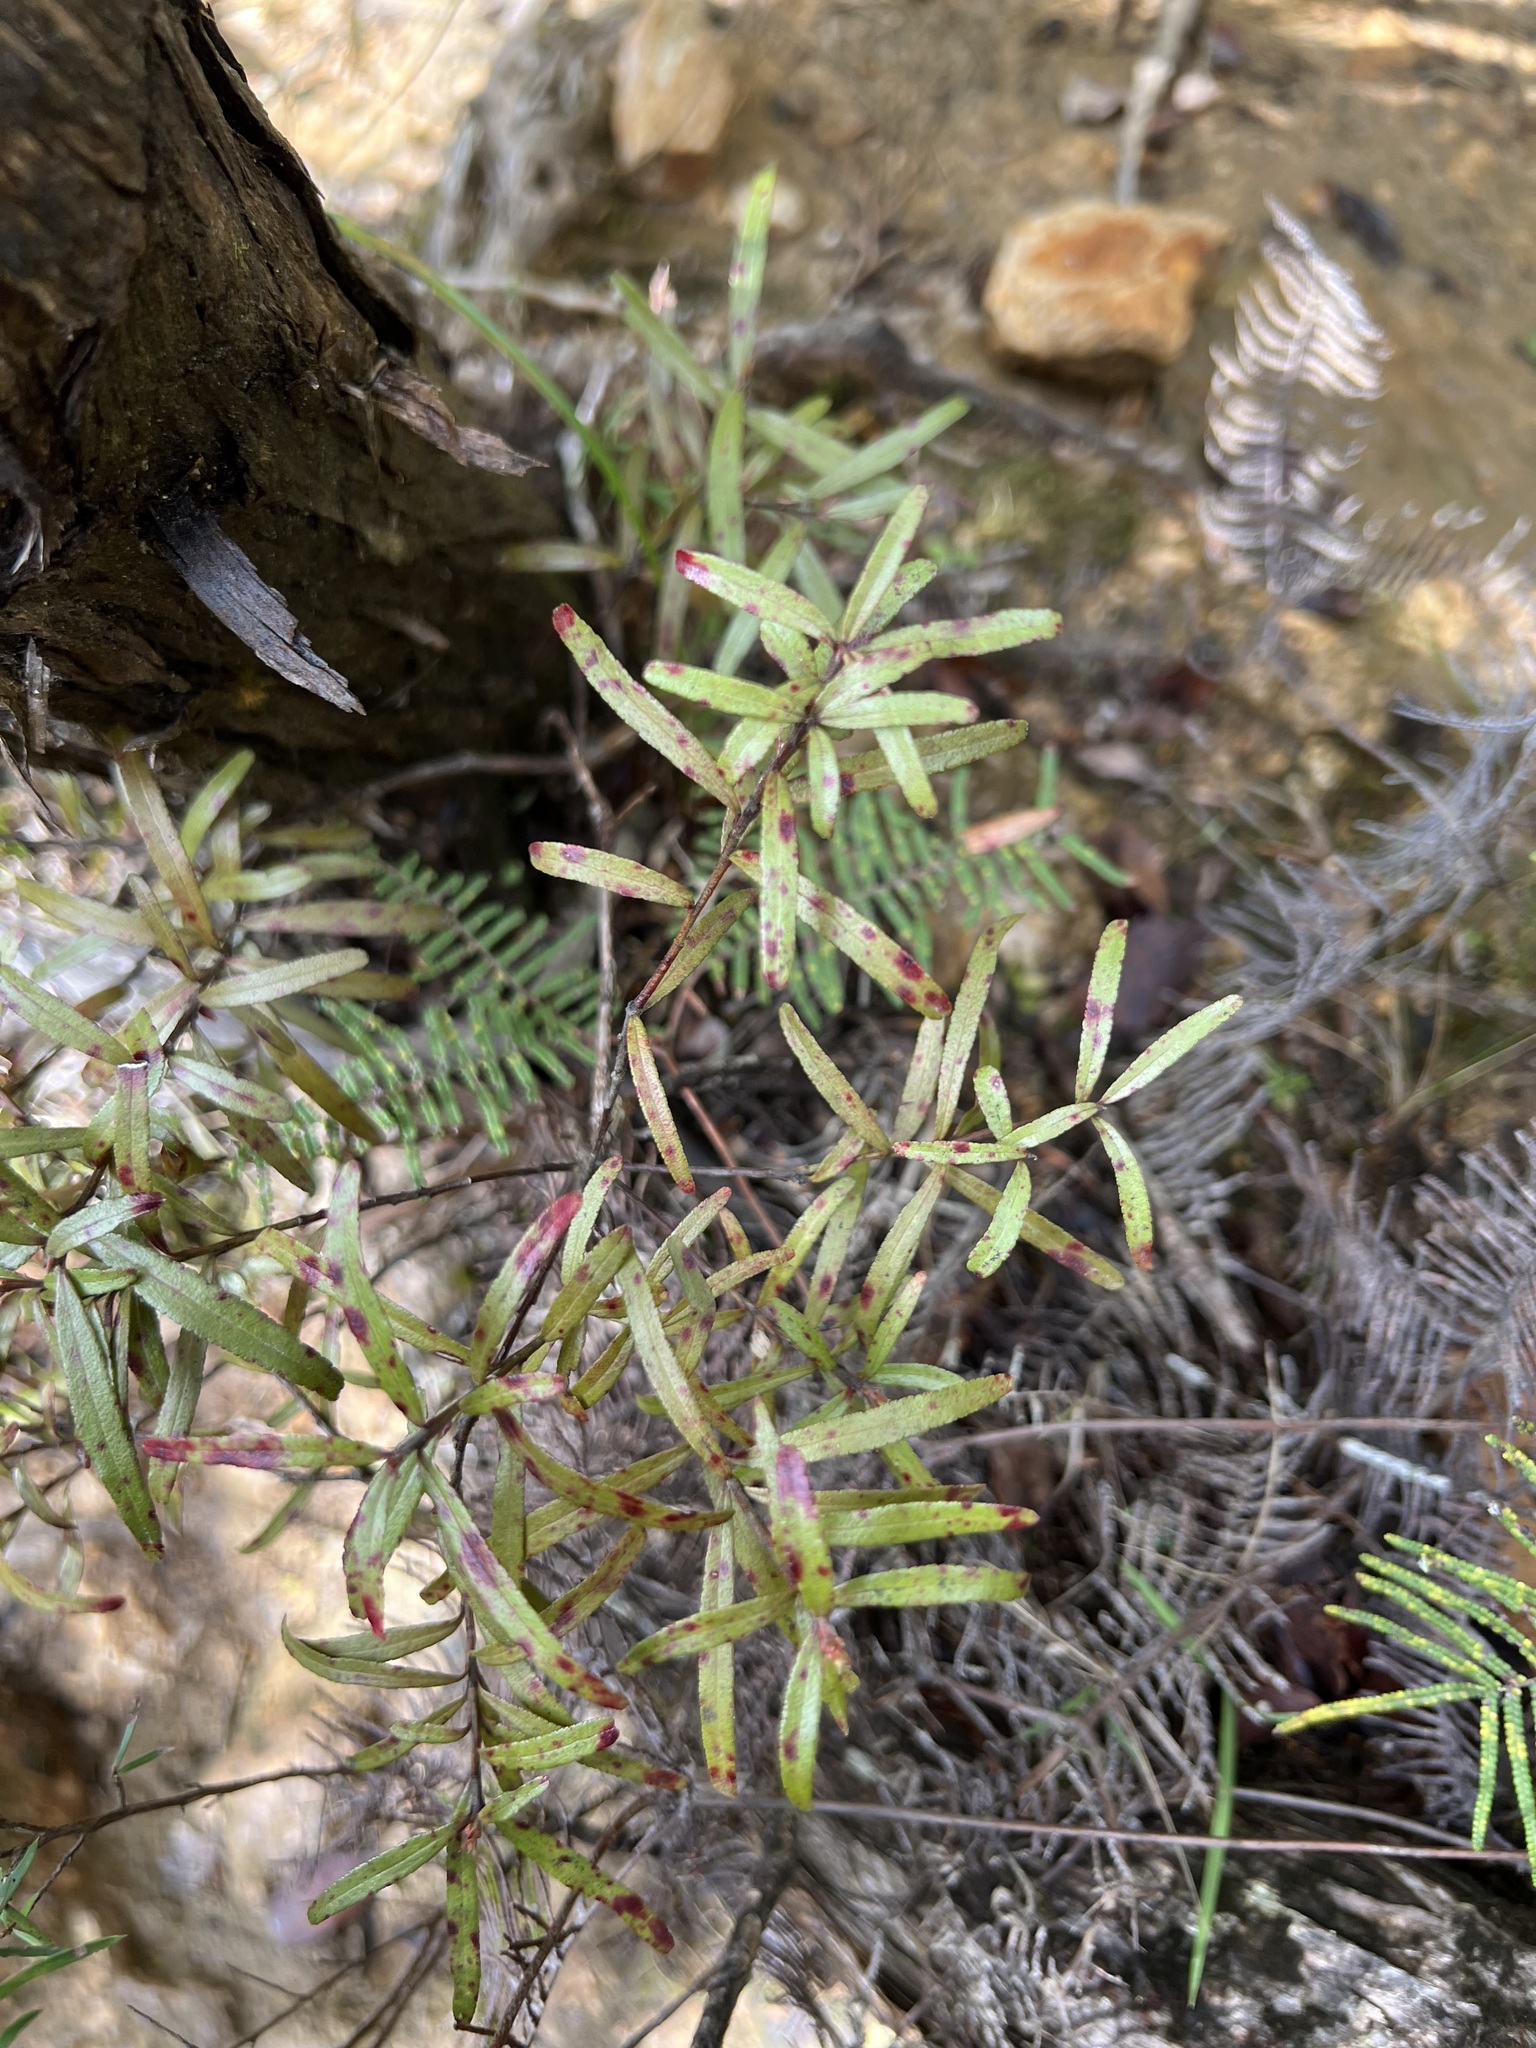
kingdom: Plantae
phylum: Tracheophyta
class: Magnoliopsida
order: Sapindales
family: Rutaceae
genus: Leionema
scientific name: Leionema nudum
